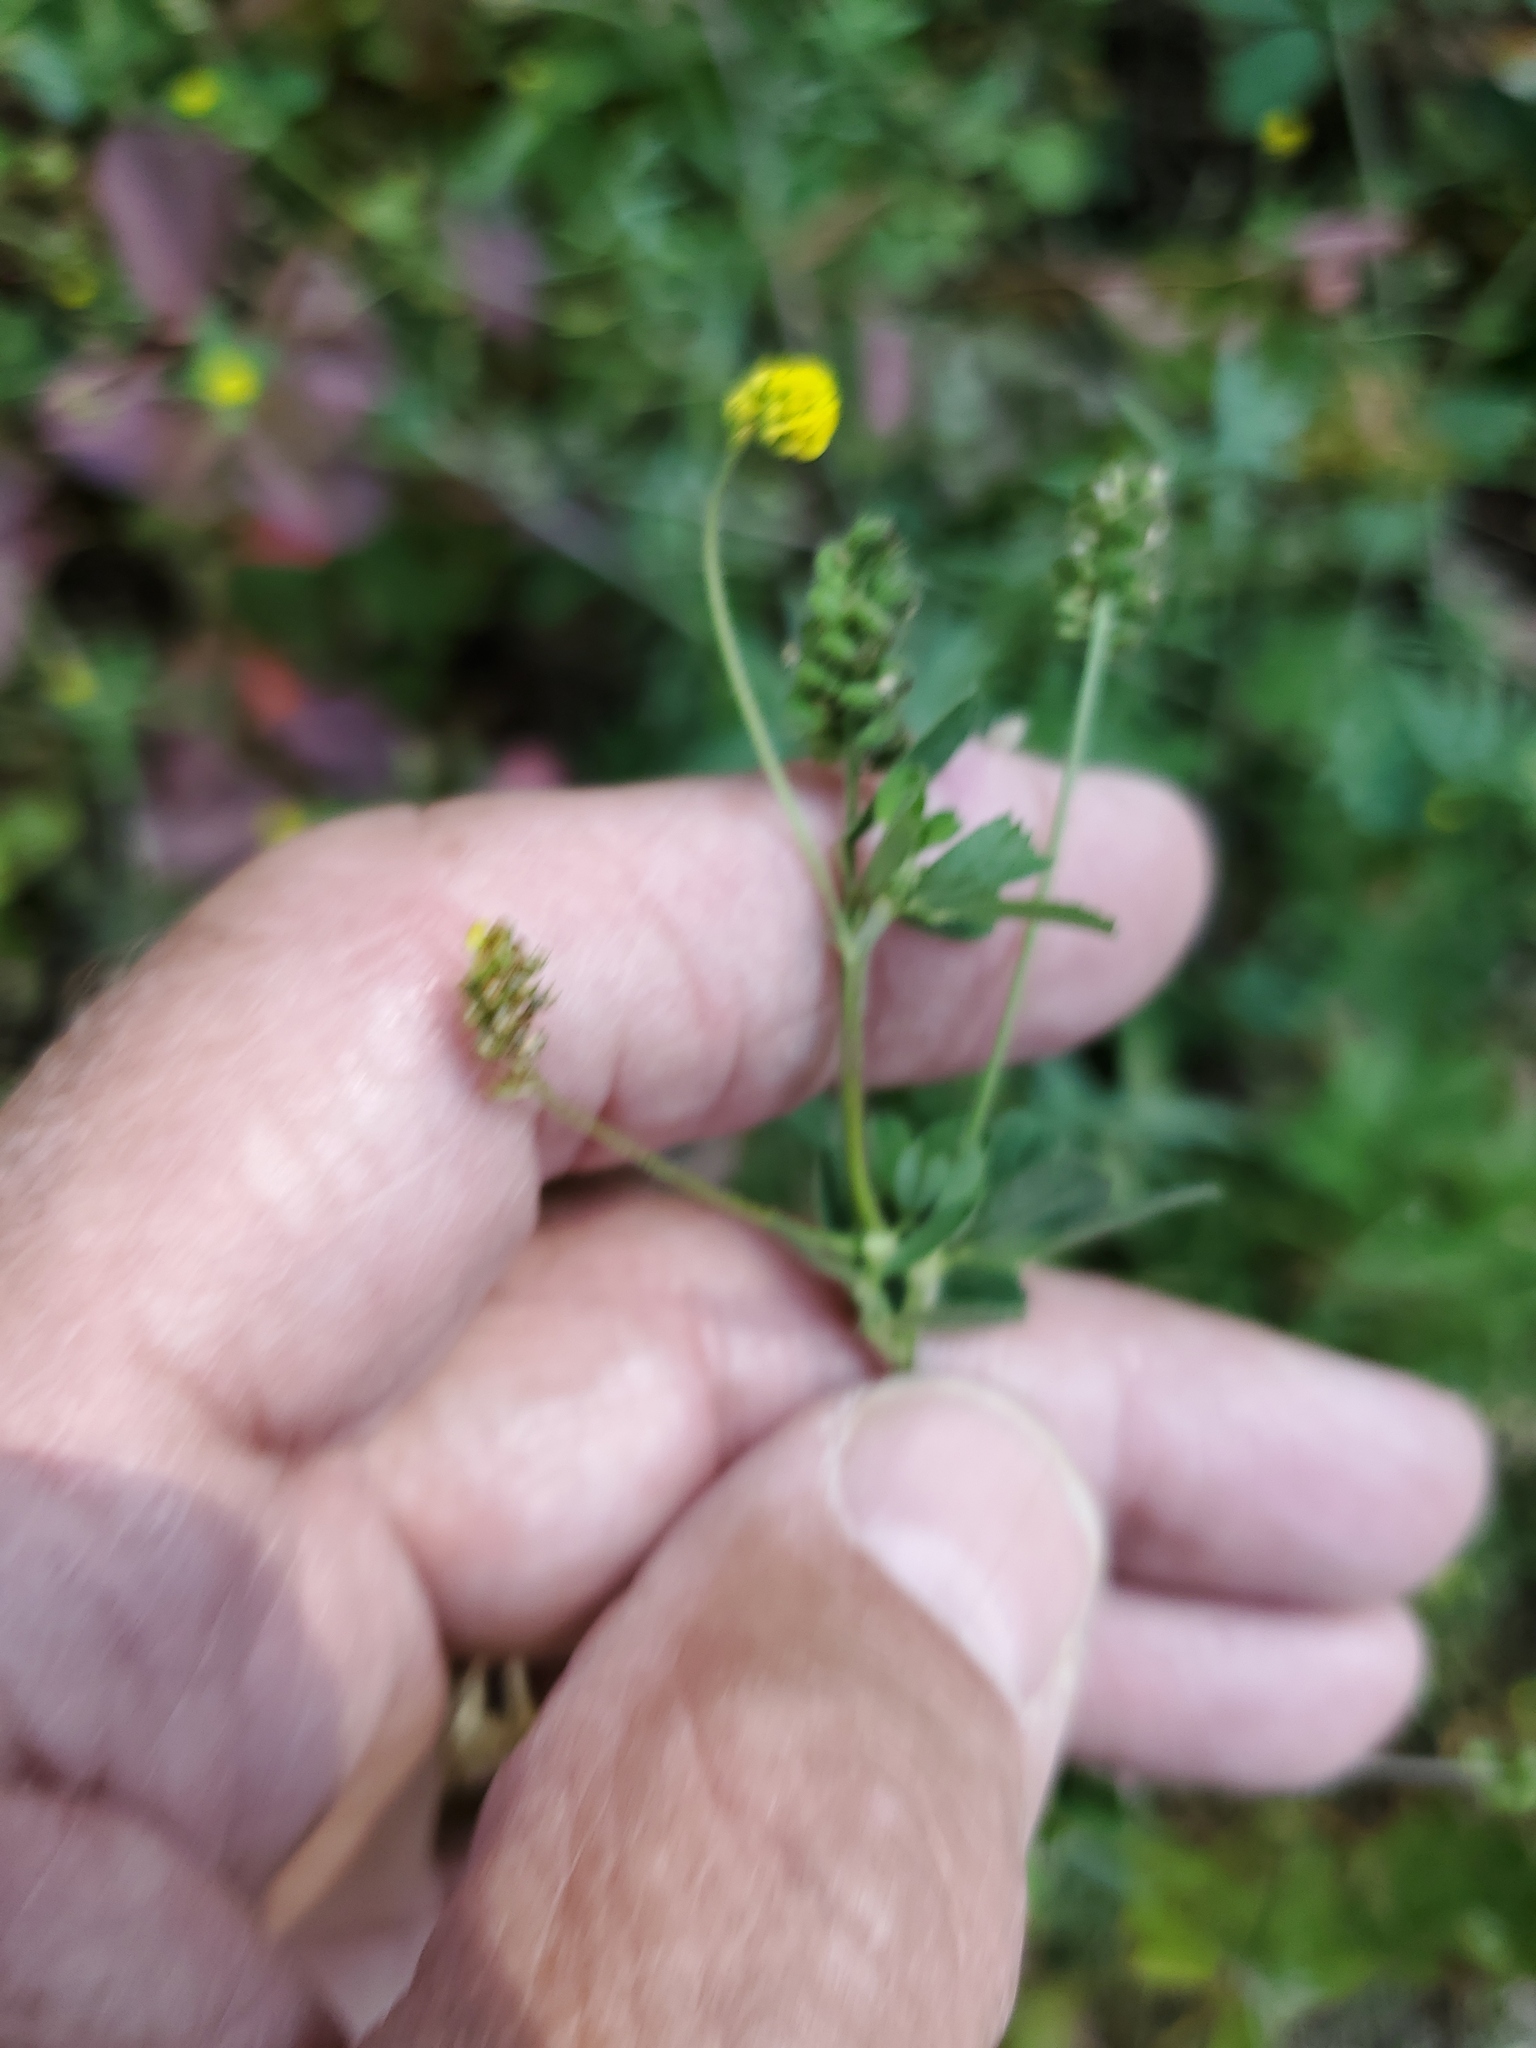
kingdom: Plantae
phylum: Tracheophyta
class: Magnoliopsida
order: Fabales
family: Fabaceae
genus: Medicago
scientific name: Medicago lupulina
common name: Black medick
